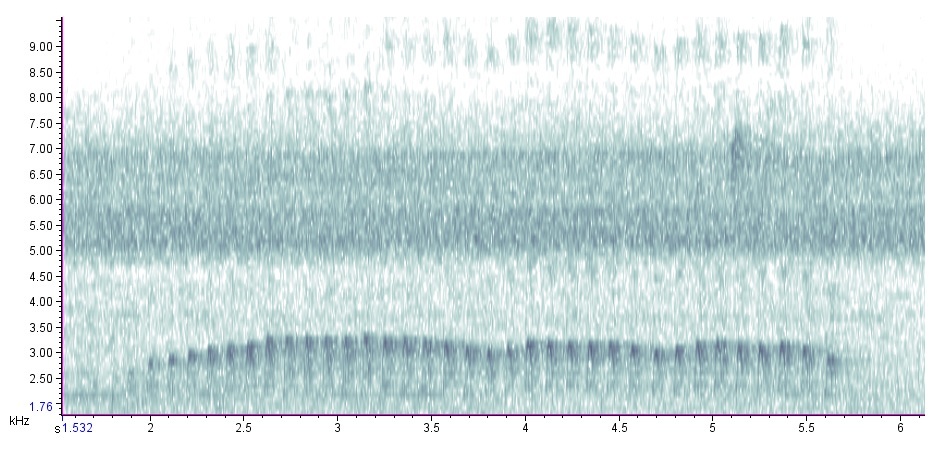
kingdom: Animalia
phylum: Chordata
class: Aves
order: Piciformes
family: Picidae
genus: Colaptes
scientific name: Colaptes auratus
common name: Northern flicker
